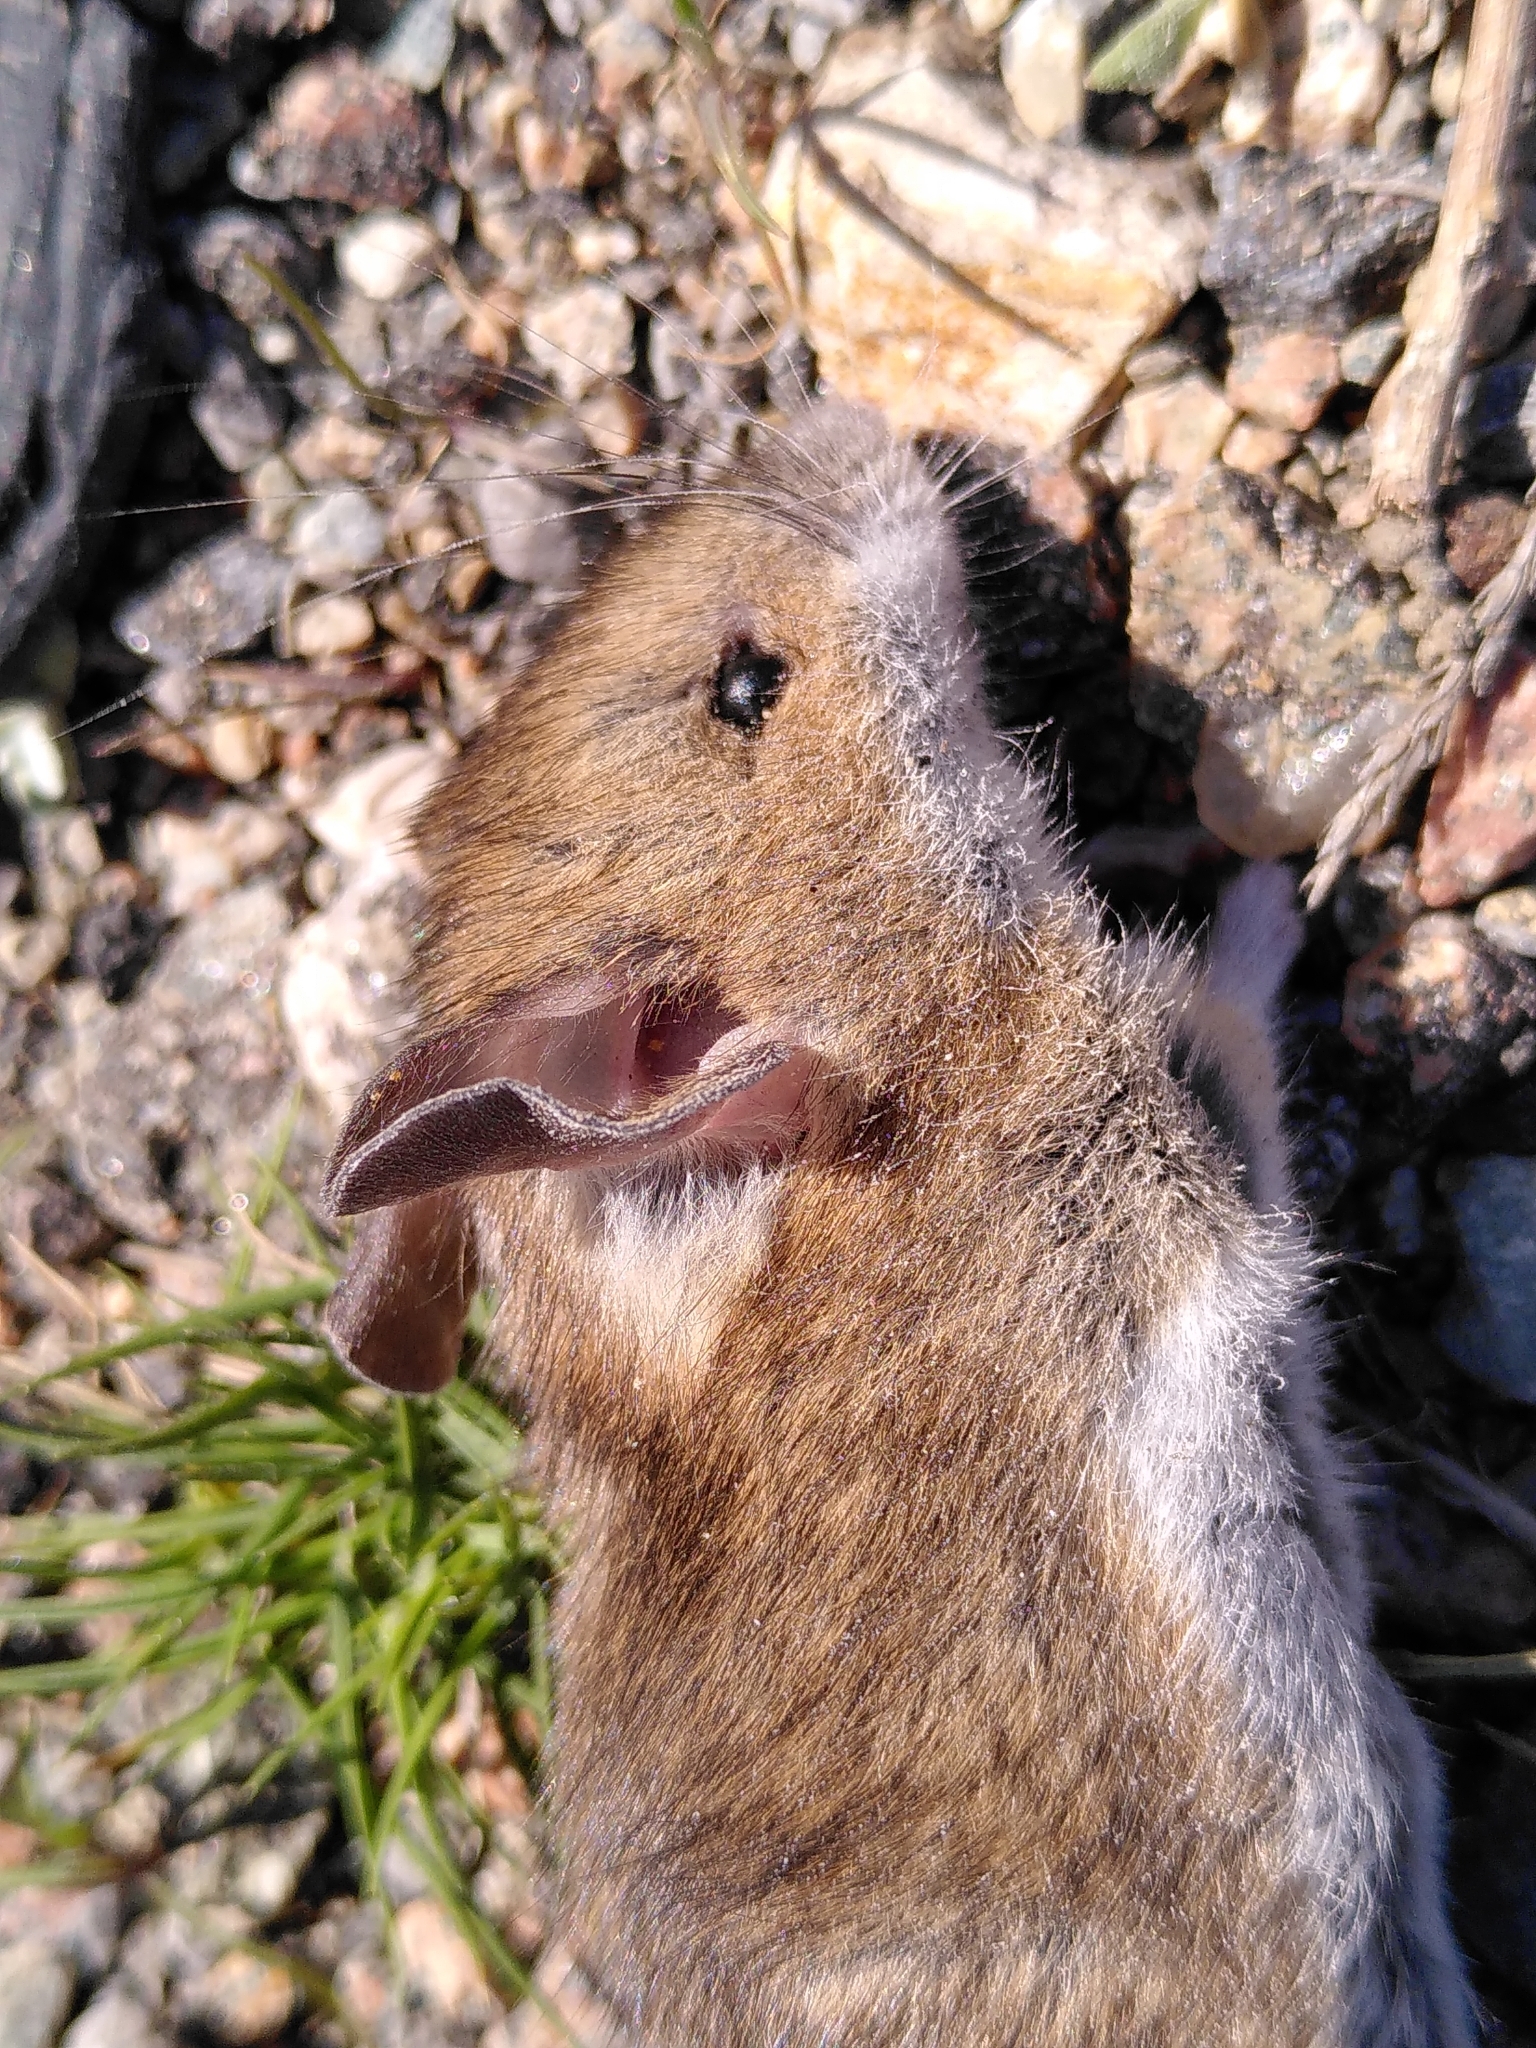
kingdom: Animalia
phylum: Chordata
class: Mammalia
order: Rodentia
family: Muridae
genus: Apodemus
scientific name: Apodemus sylvaticus
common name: Wood mouse
